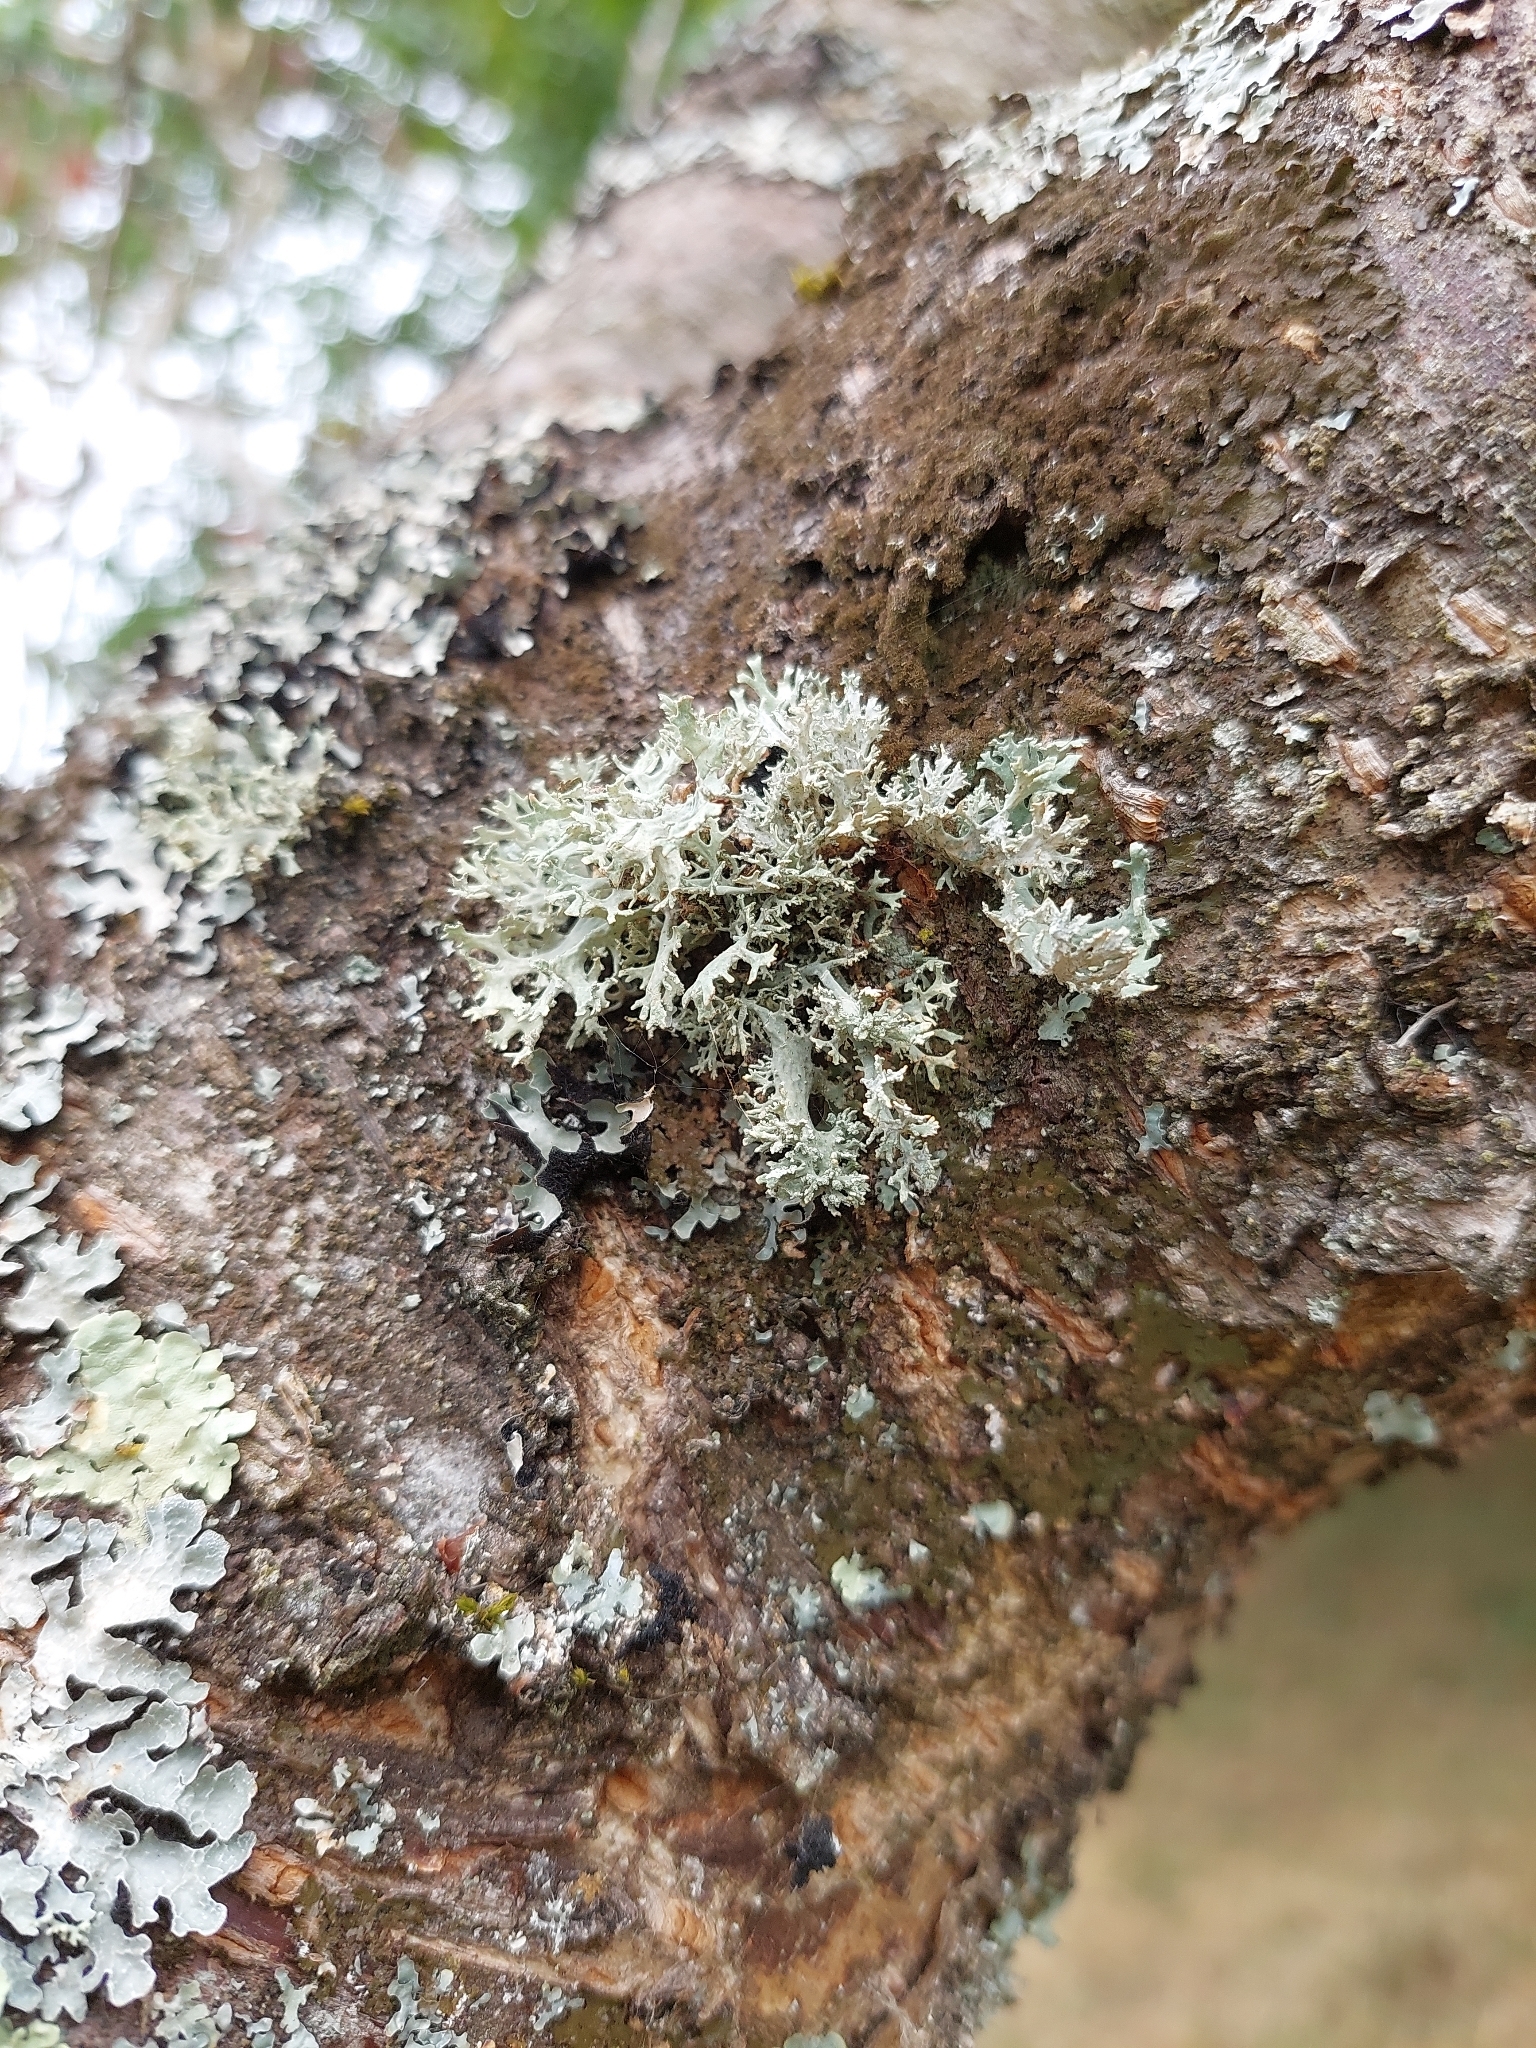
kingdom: Fungi
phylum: Ascomycota
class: Lecanoromycetes
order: Lecanorales
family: Parmeliaceae
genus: Evernia
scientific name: Evernia prunastri
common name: Oak moss
